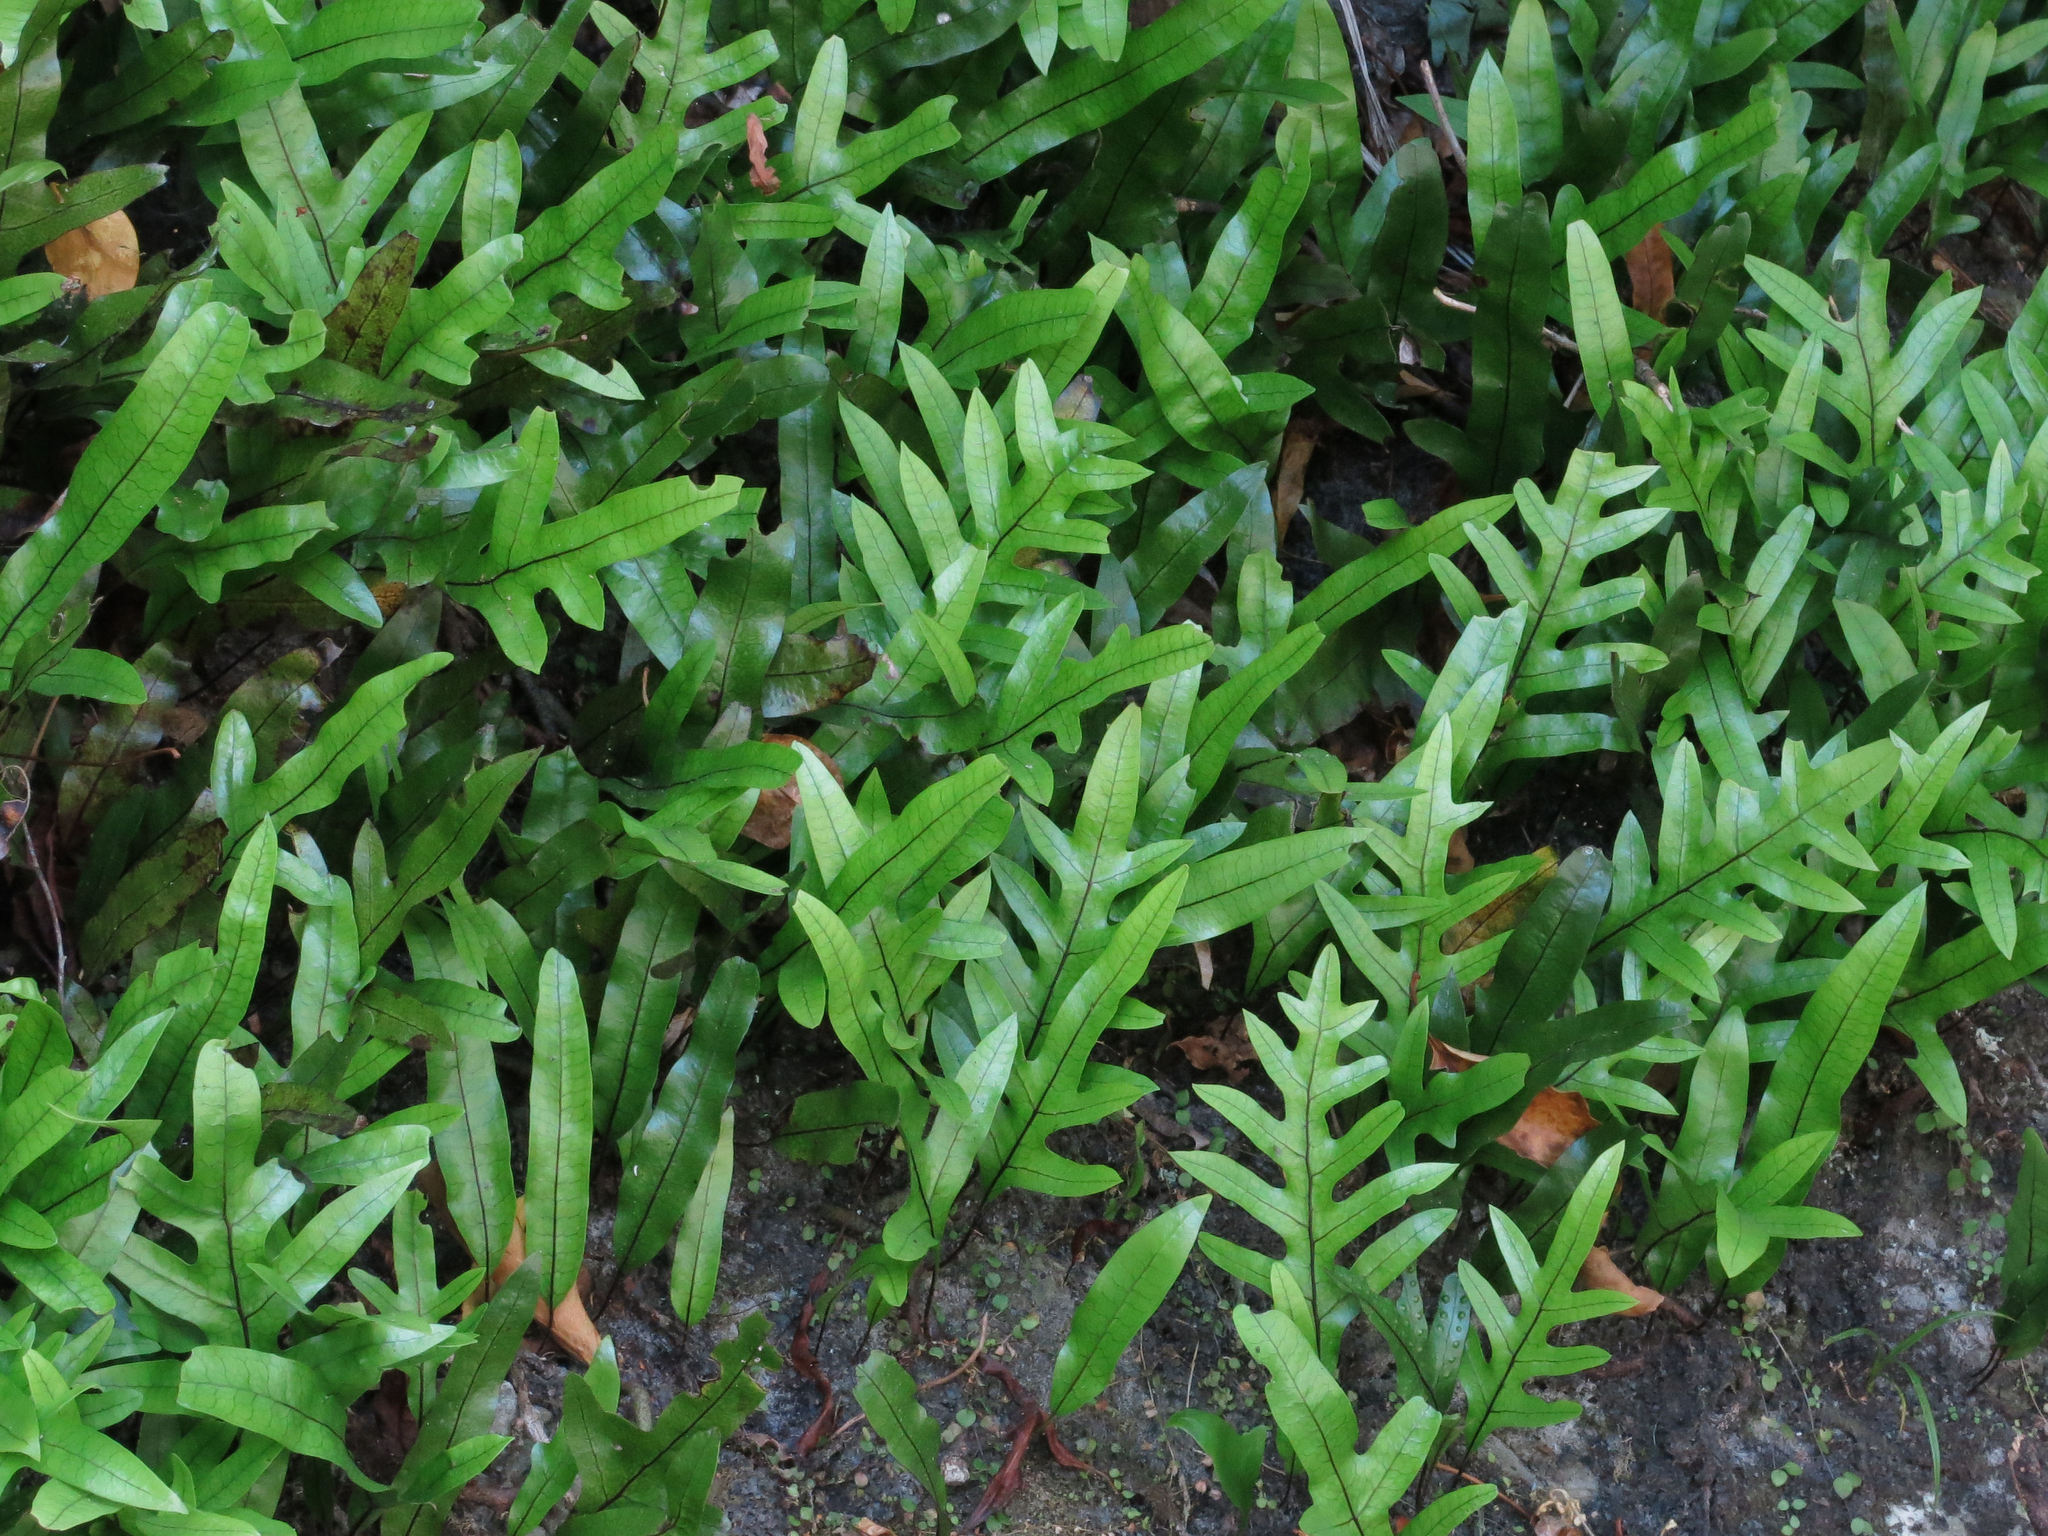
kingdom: Plantae
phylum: Tracheophyta
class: Polypodiopsida
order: Polypodiales
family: Polypodiaceae
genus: Lecanopteris
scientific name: Lecanopteris pustulata
